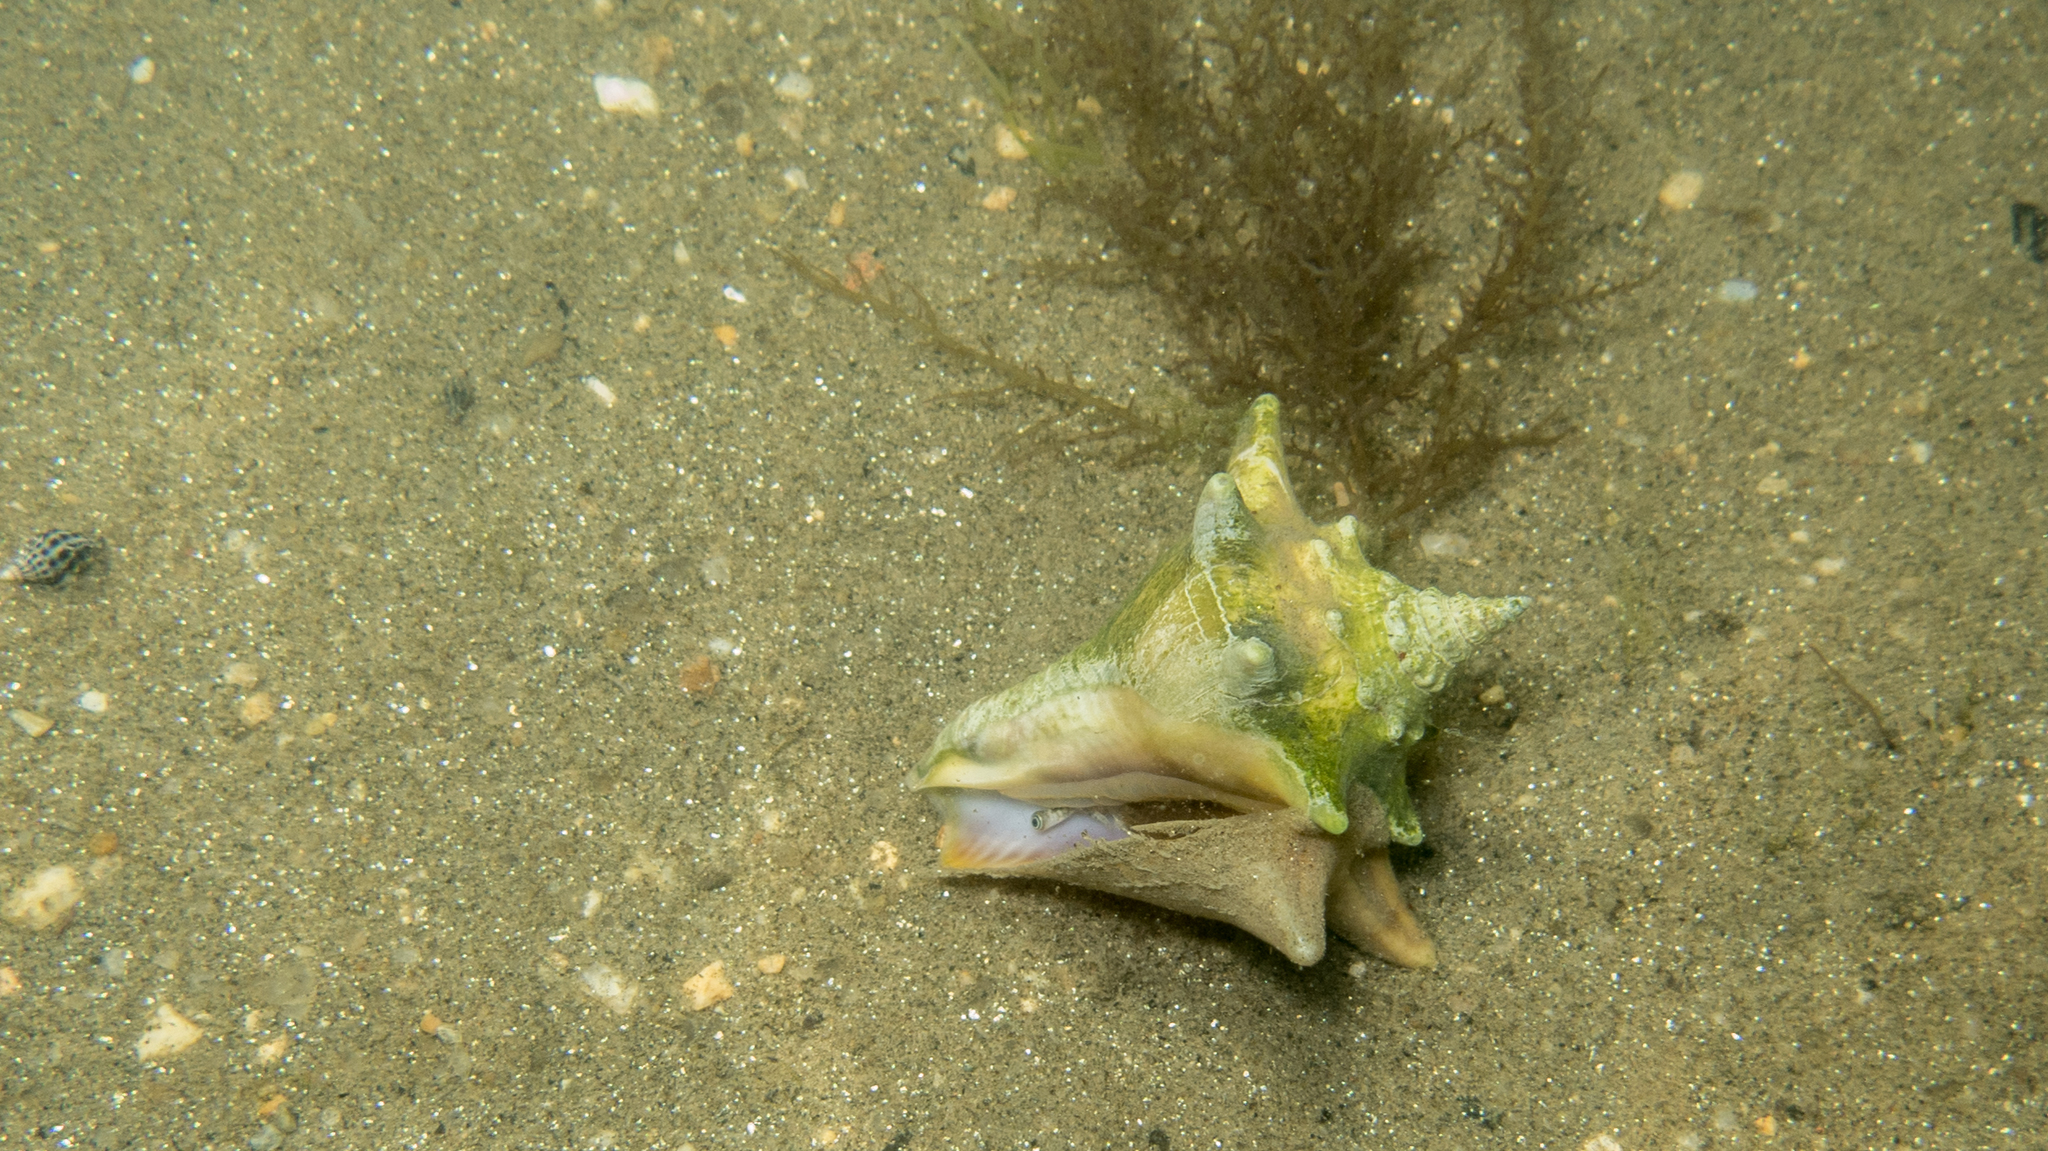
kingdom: Animalia
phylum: Mollusca
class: Gastropoda
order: Littorinimorpha
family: Strombidae
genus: Macrostrombus
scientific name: Macrostrombus costatus
